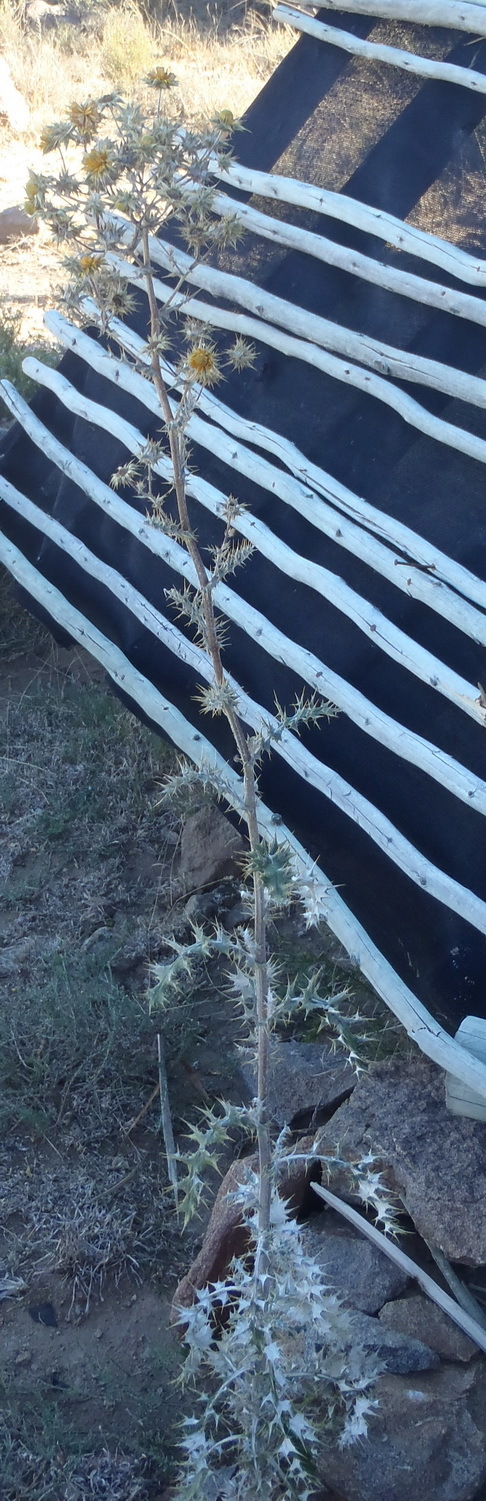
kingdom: Plantae
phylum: Tracheophyta
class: Magnoliopsida
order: Asterales
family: Asteraceae
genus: Berkheya
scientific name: Berkheya heterophylla
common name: Prickly gousblom
